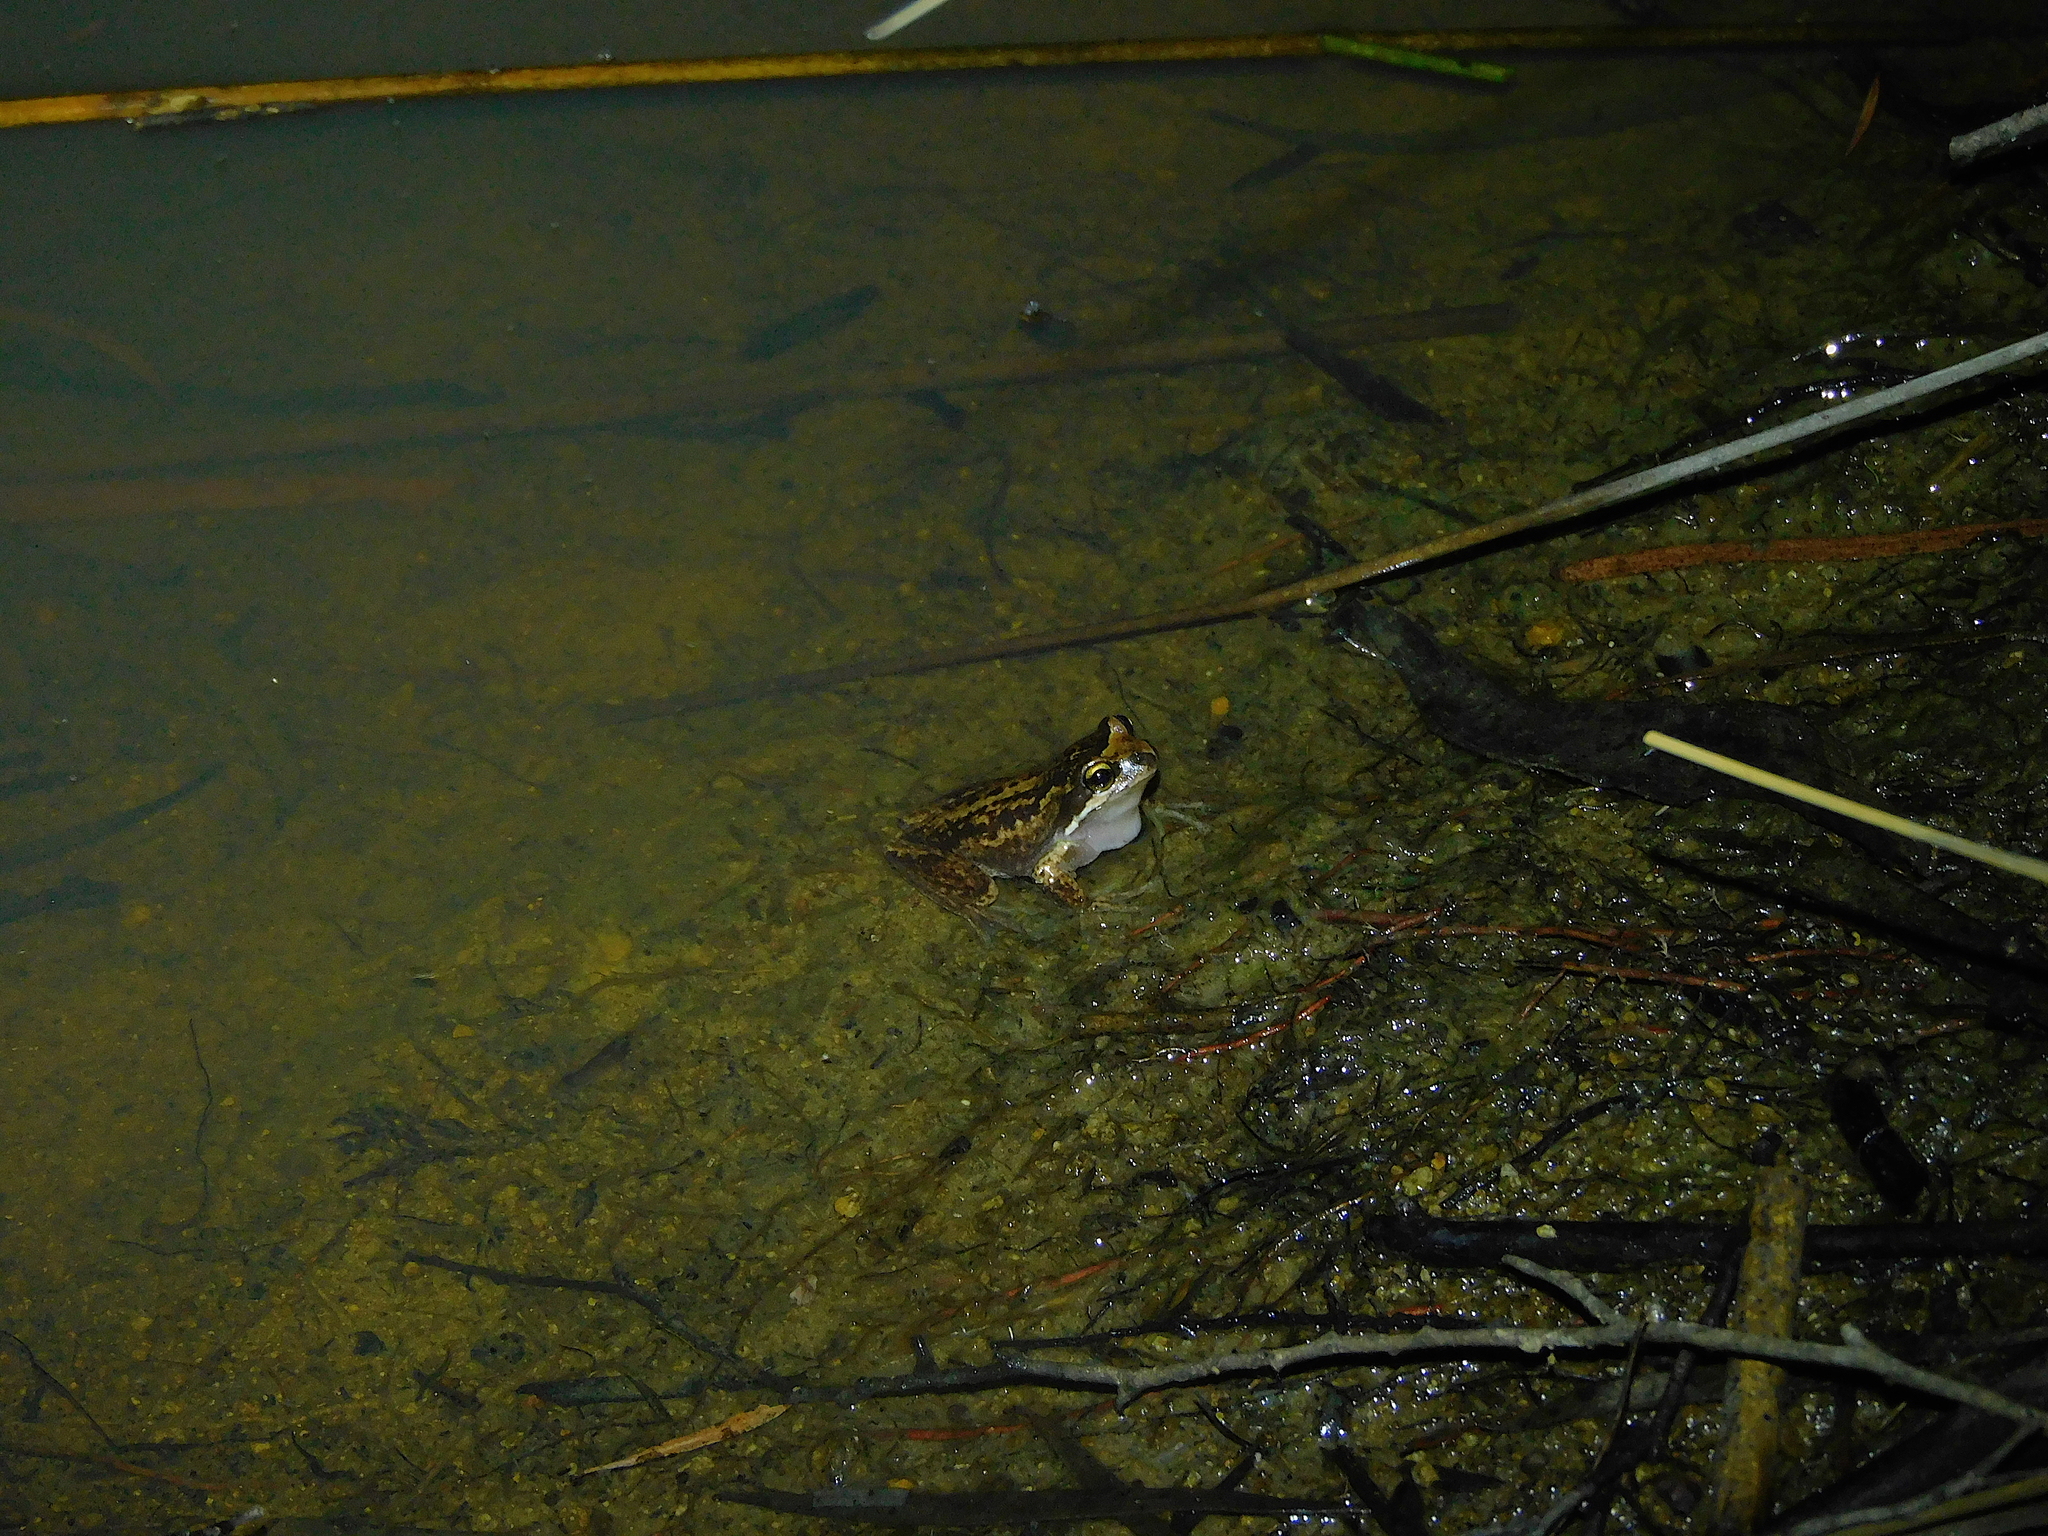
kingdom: Animalia
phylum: Chordata
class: Amphibia
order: Anura
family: Pelodryadidae
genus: Litoria
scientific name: Litoria ewingii
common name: Southern brown tree frog
